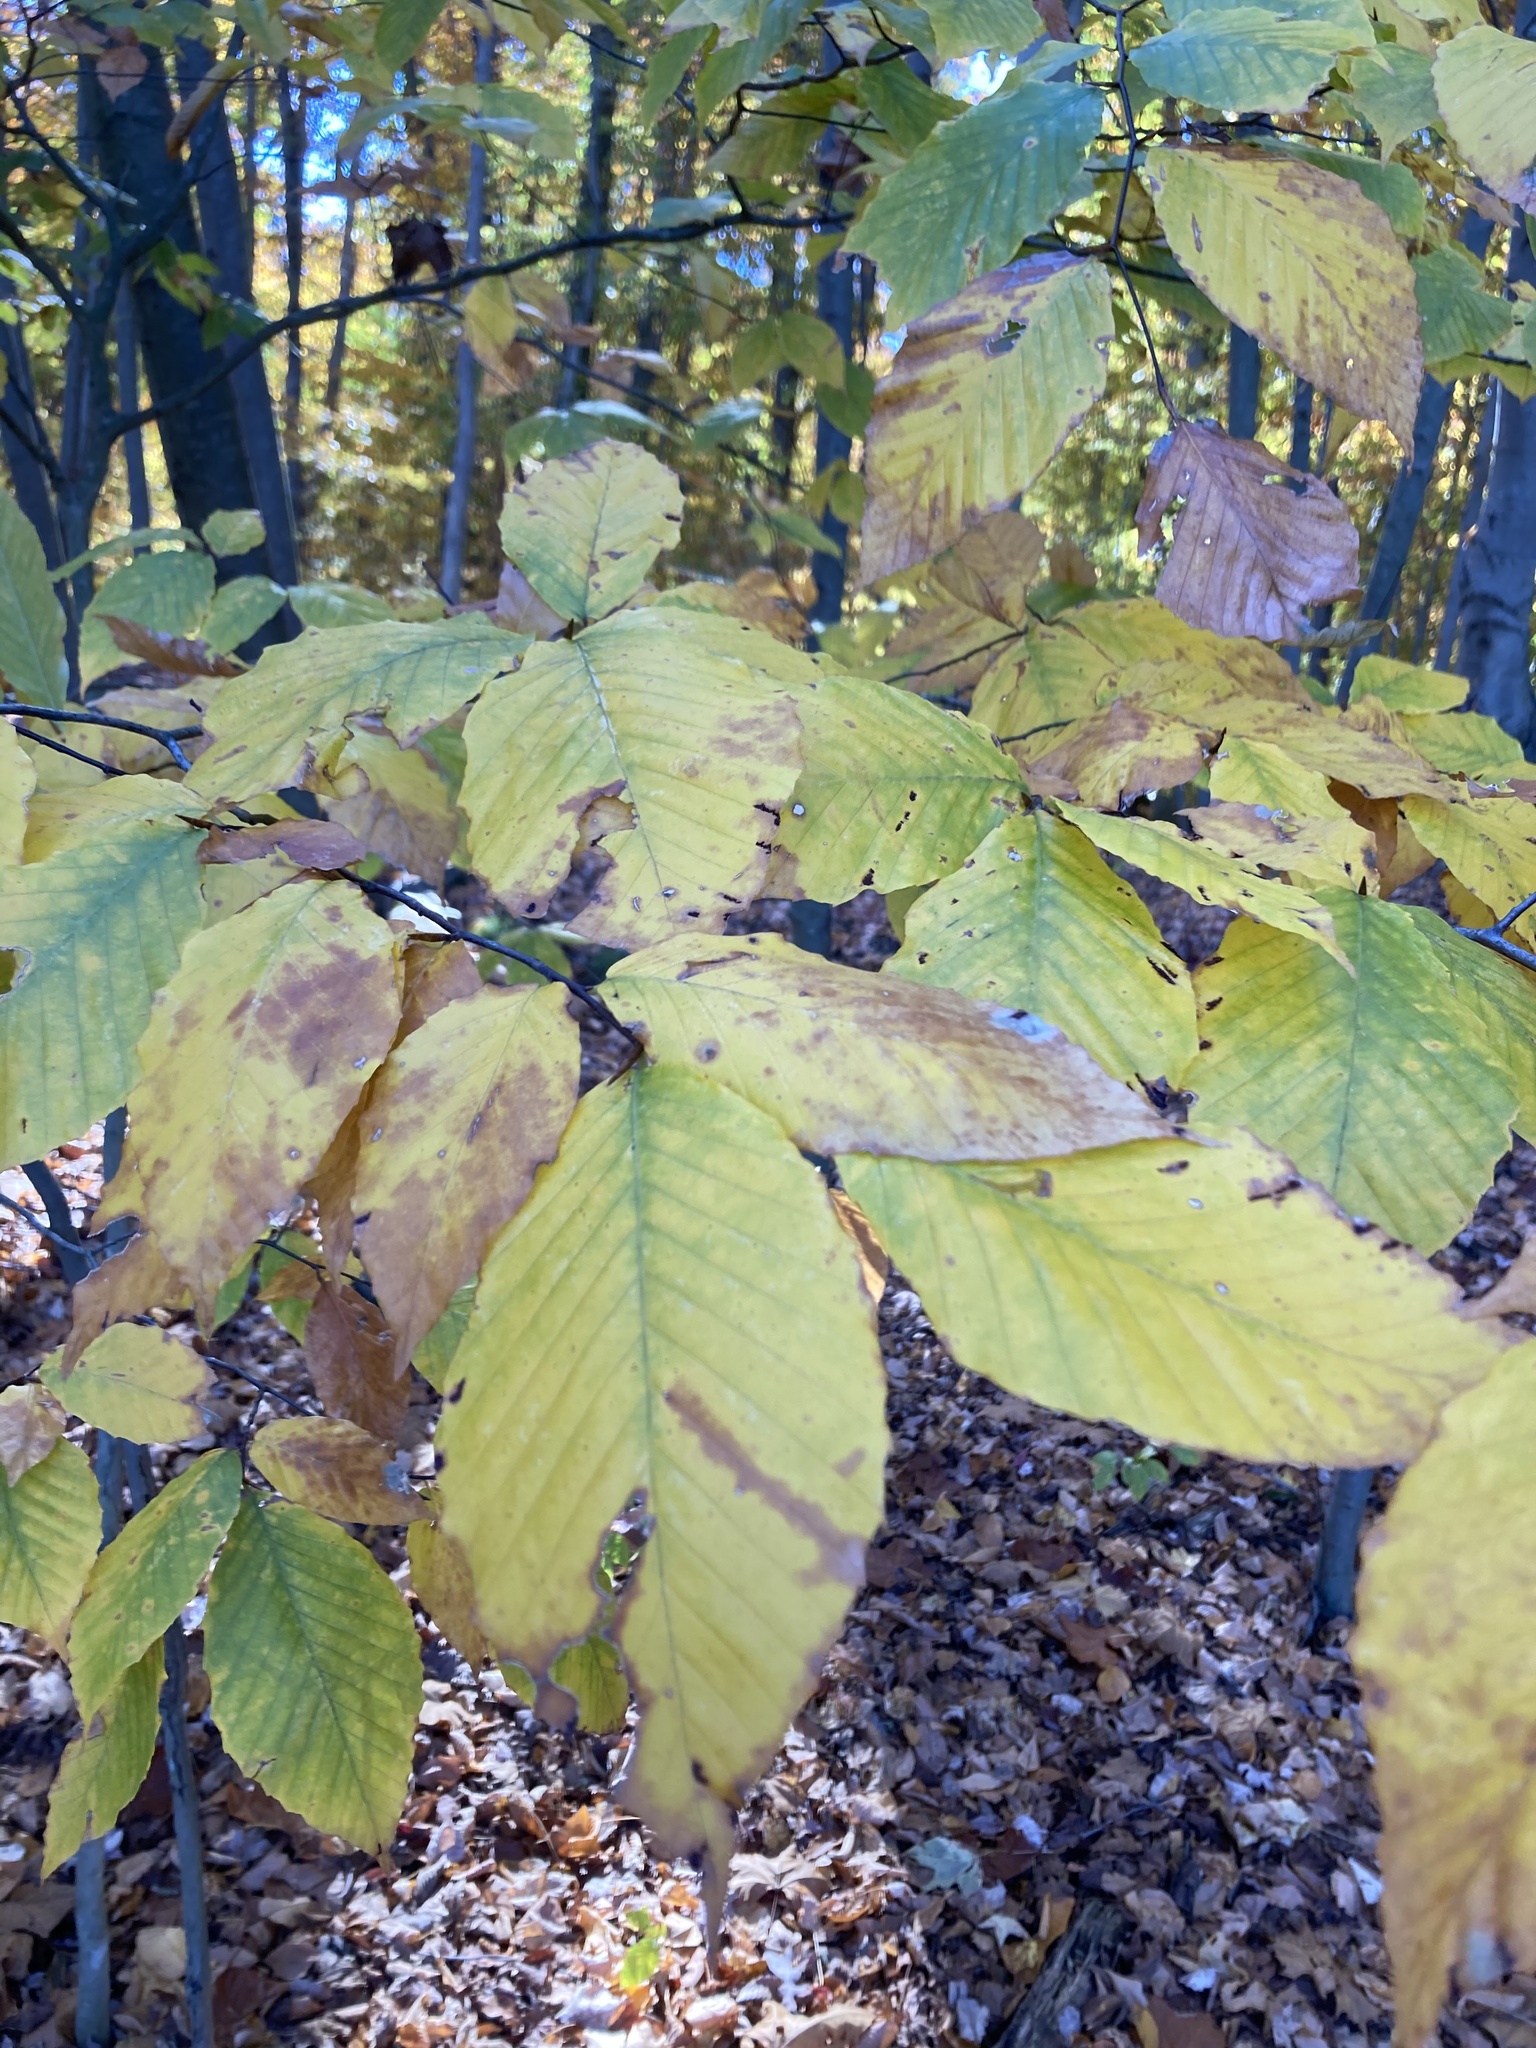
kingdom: Plantae
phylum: Tracheophyta
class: Magnoliopsida
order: Fagales
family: Fagaceae
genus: Fagus
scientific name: Fagus grandifolia
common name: American beech
